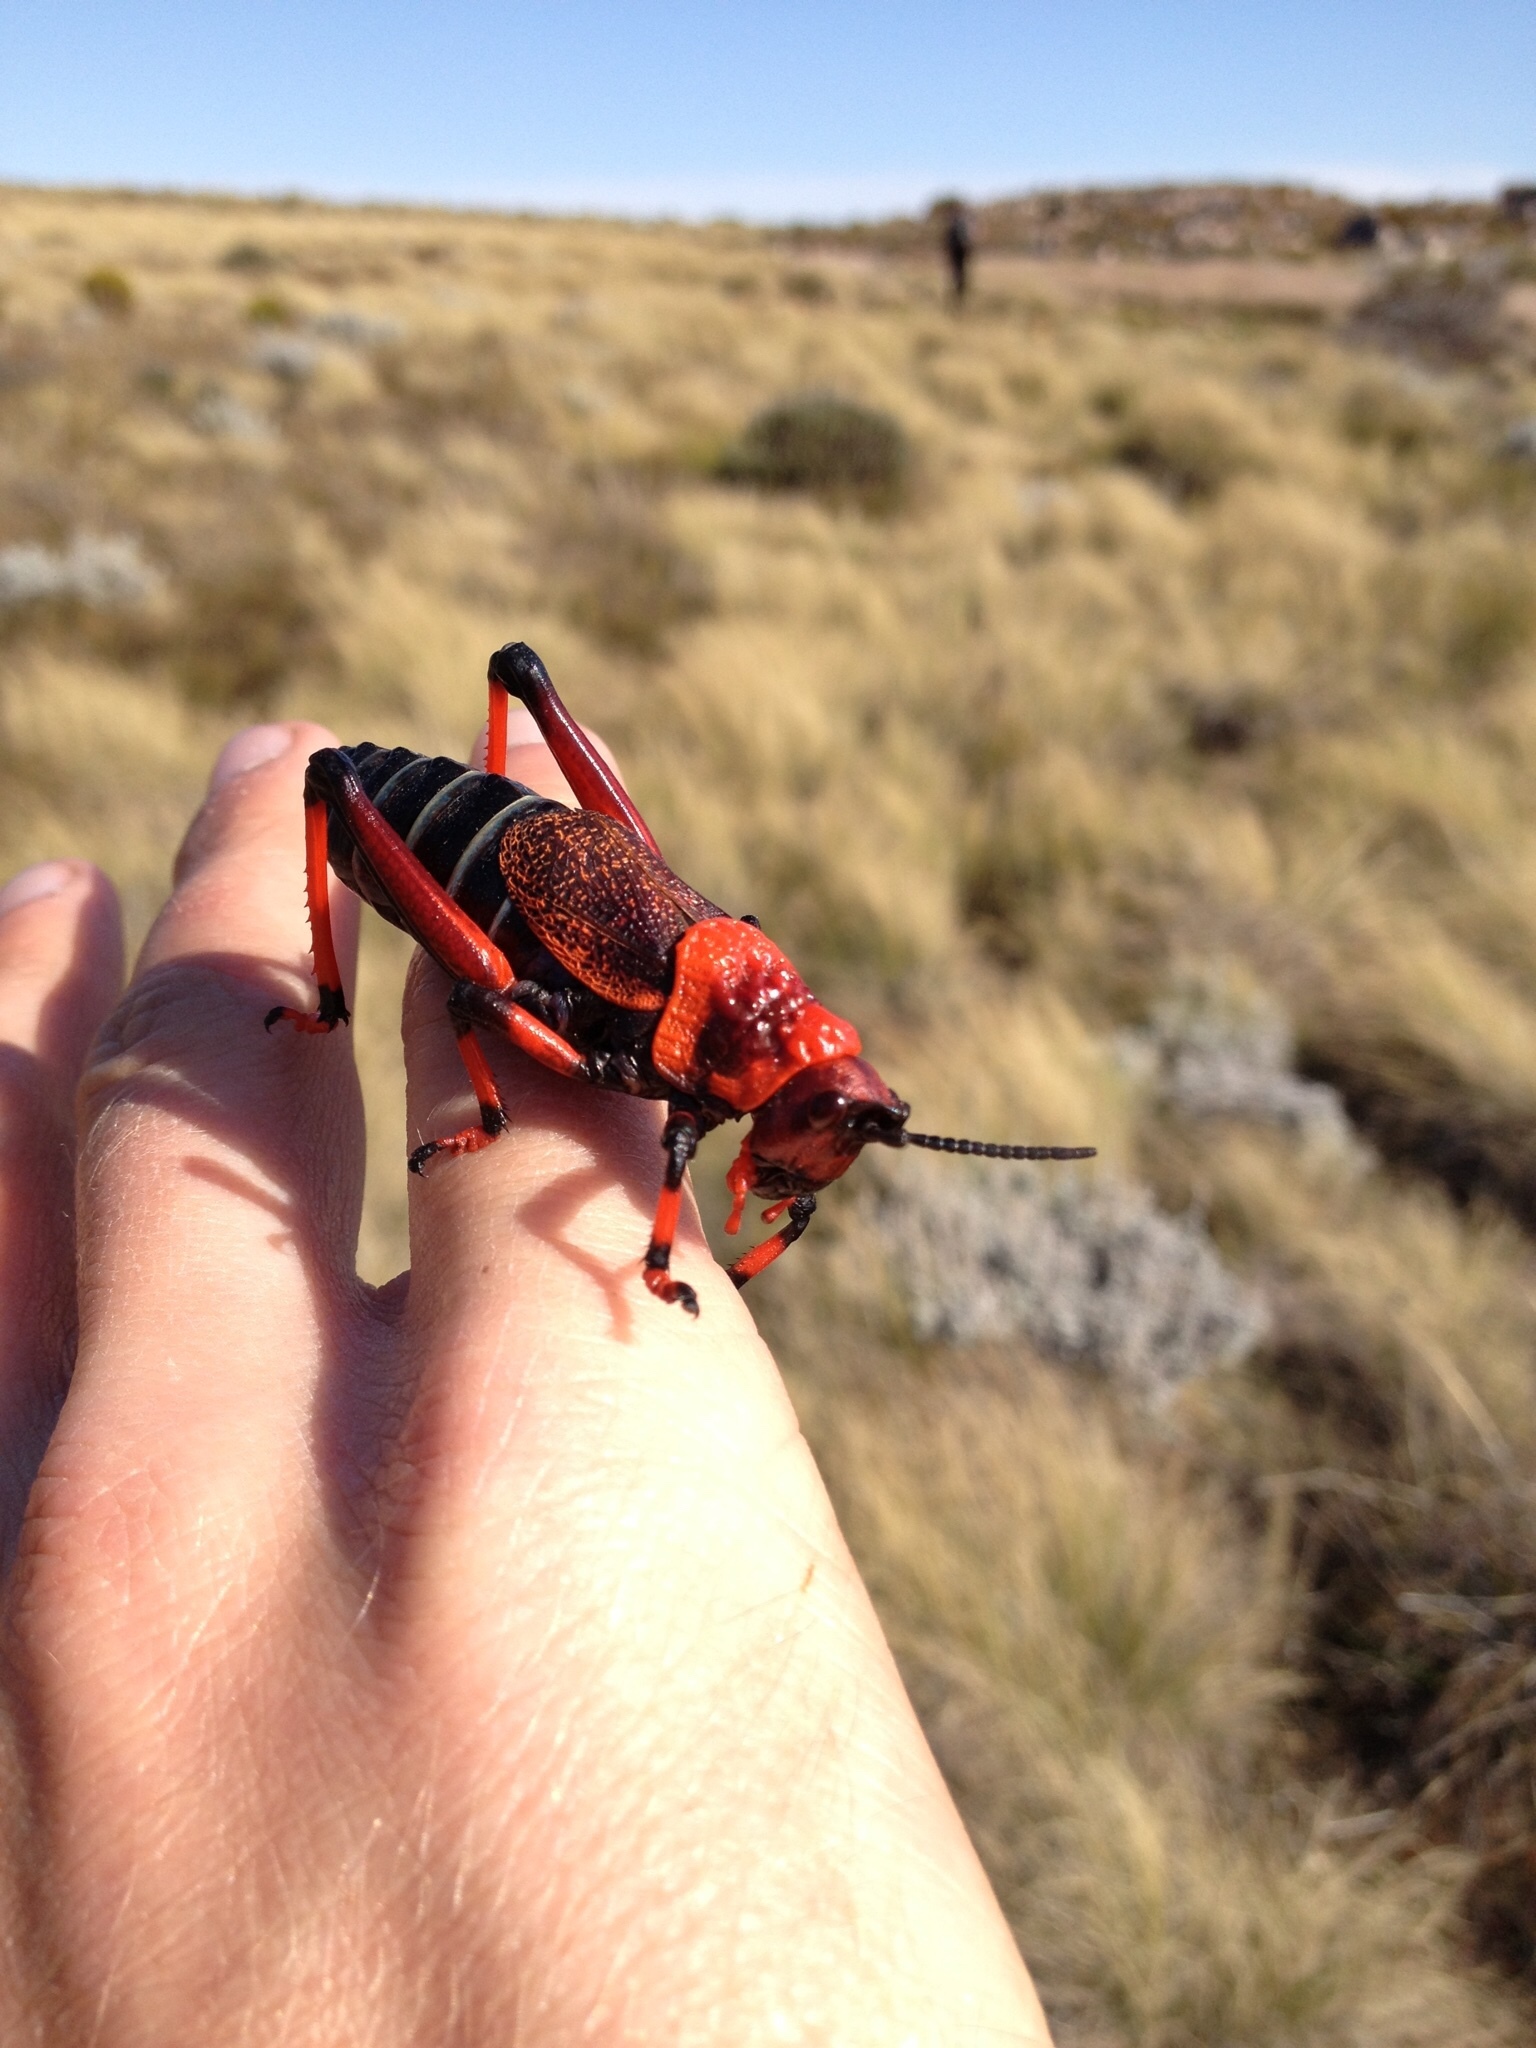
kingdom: Animalia
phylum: Arthropoda
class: Insecta
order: Orthoptera
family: Pyrgomorphidae
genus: Dictyophorus
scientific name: Dictyophorus spumans
